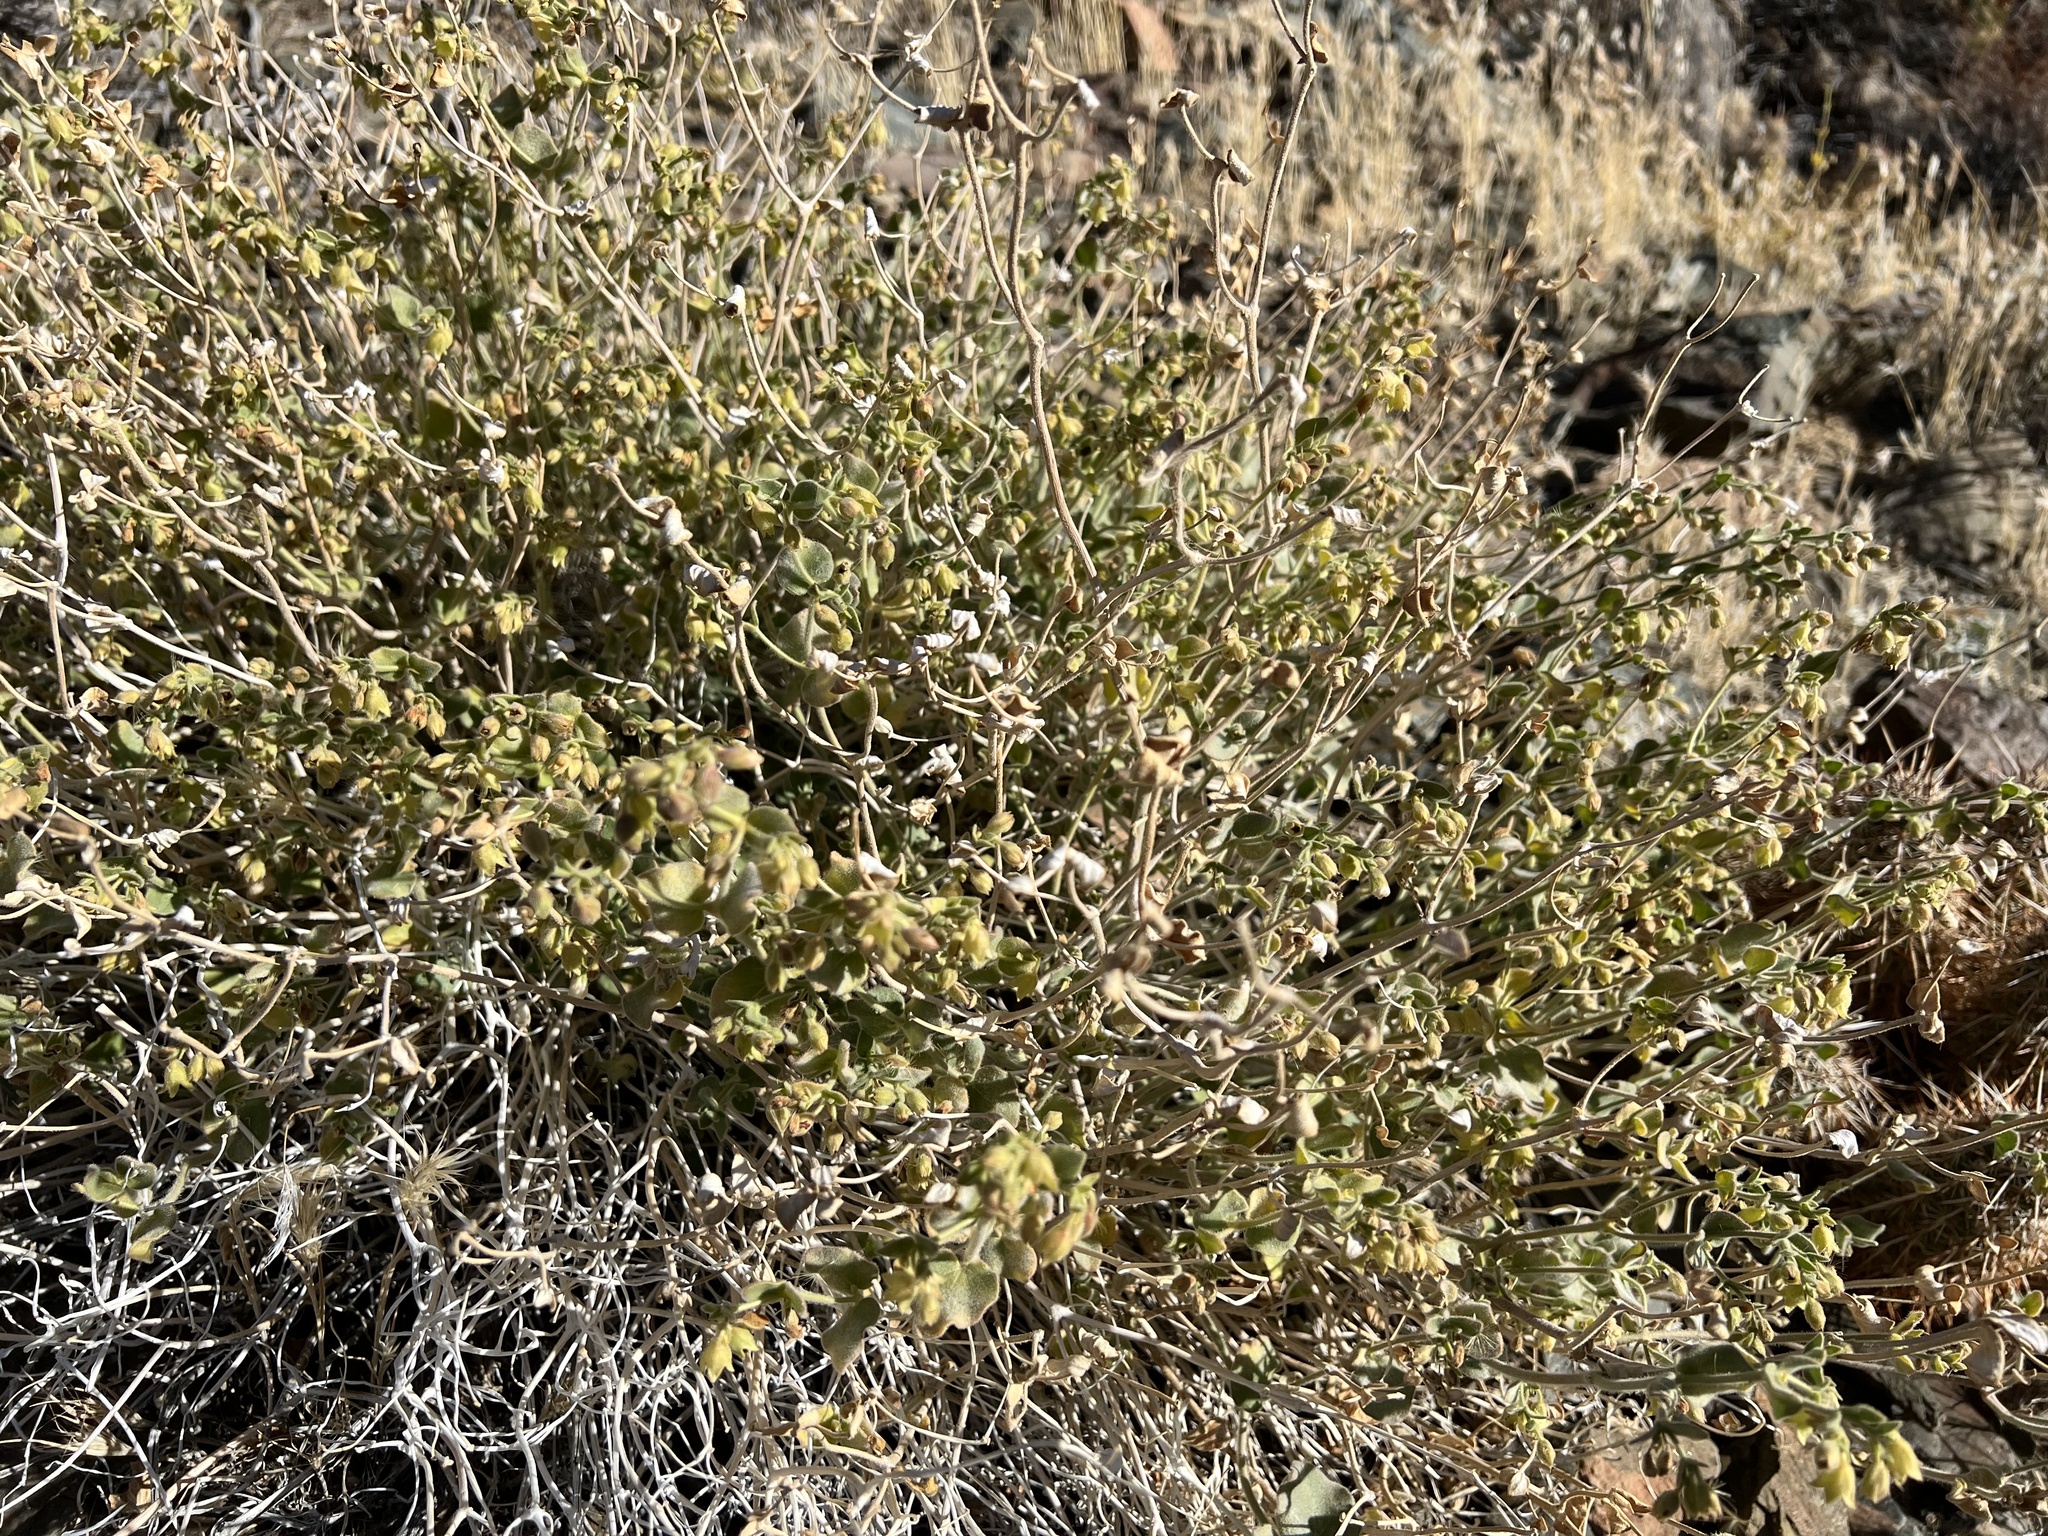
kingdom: Plantae
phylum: Tracheophyta
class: Magnoliopsida
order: Caryophyllales
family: Nyctaginaceae
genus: Mirabilis
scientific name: Mirabilis laevis
